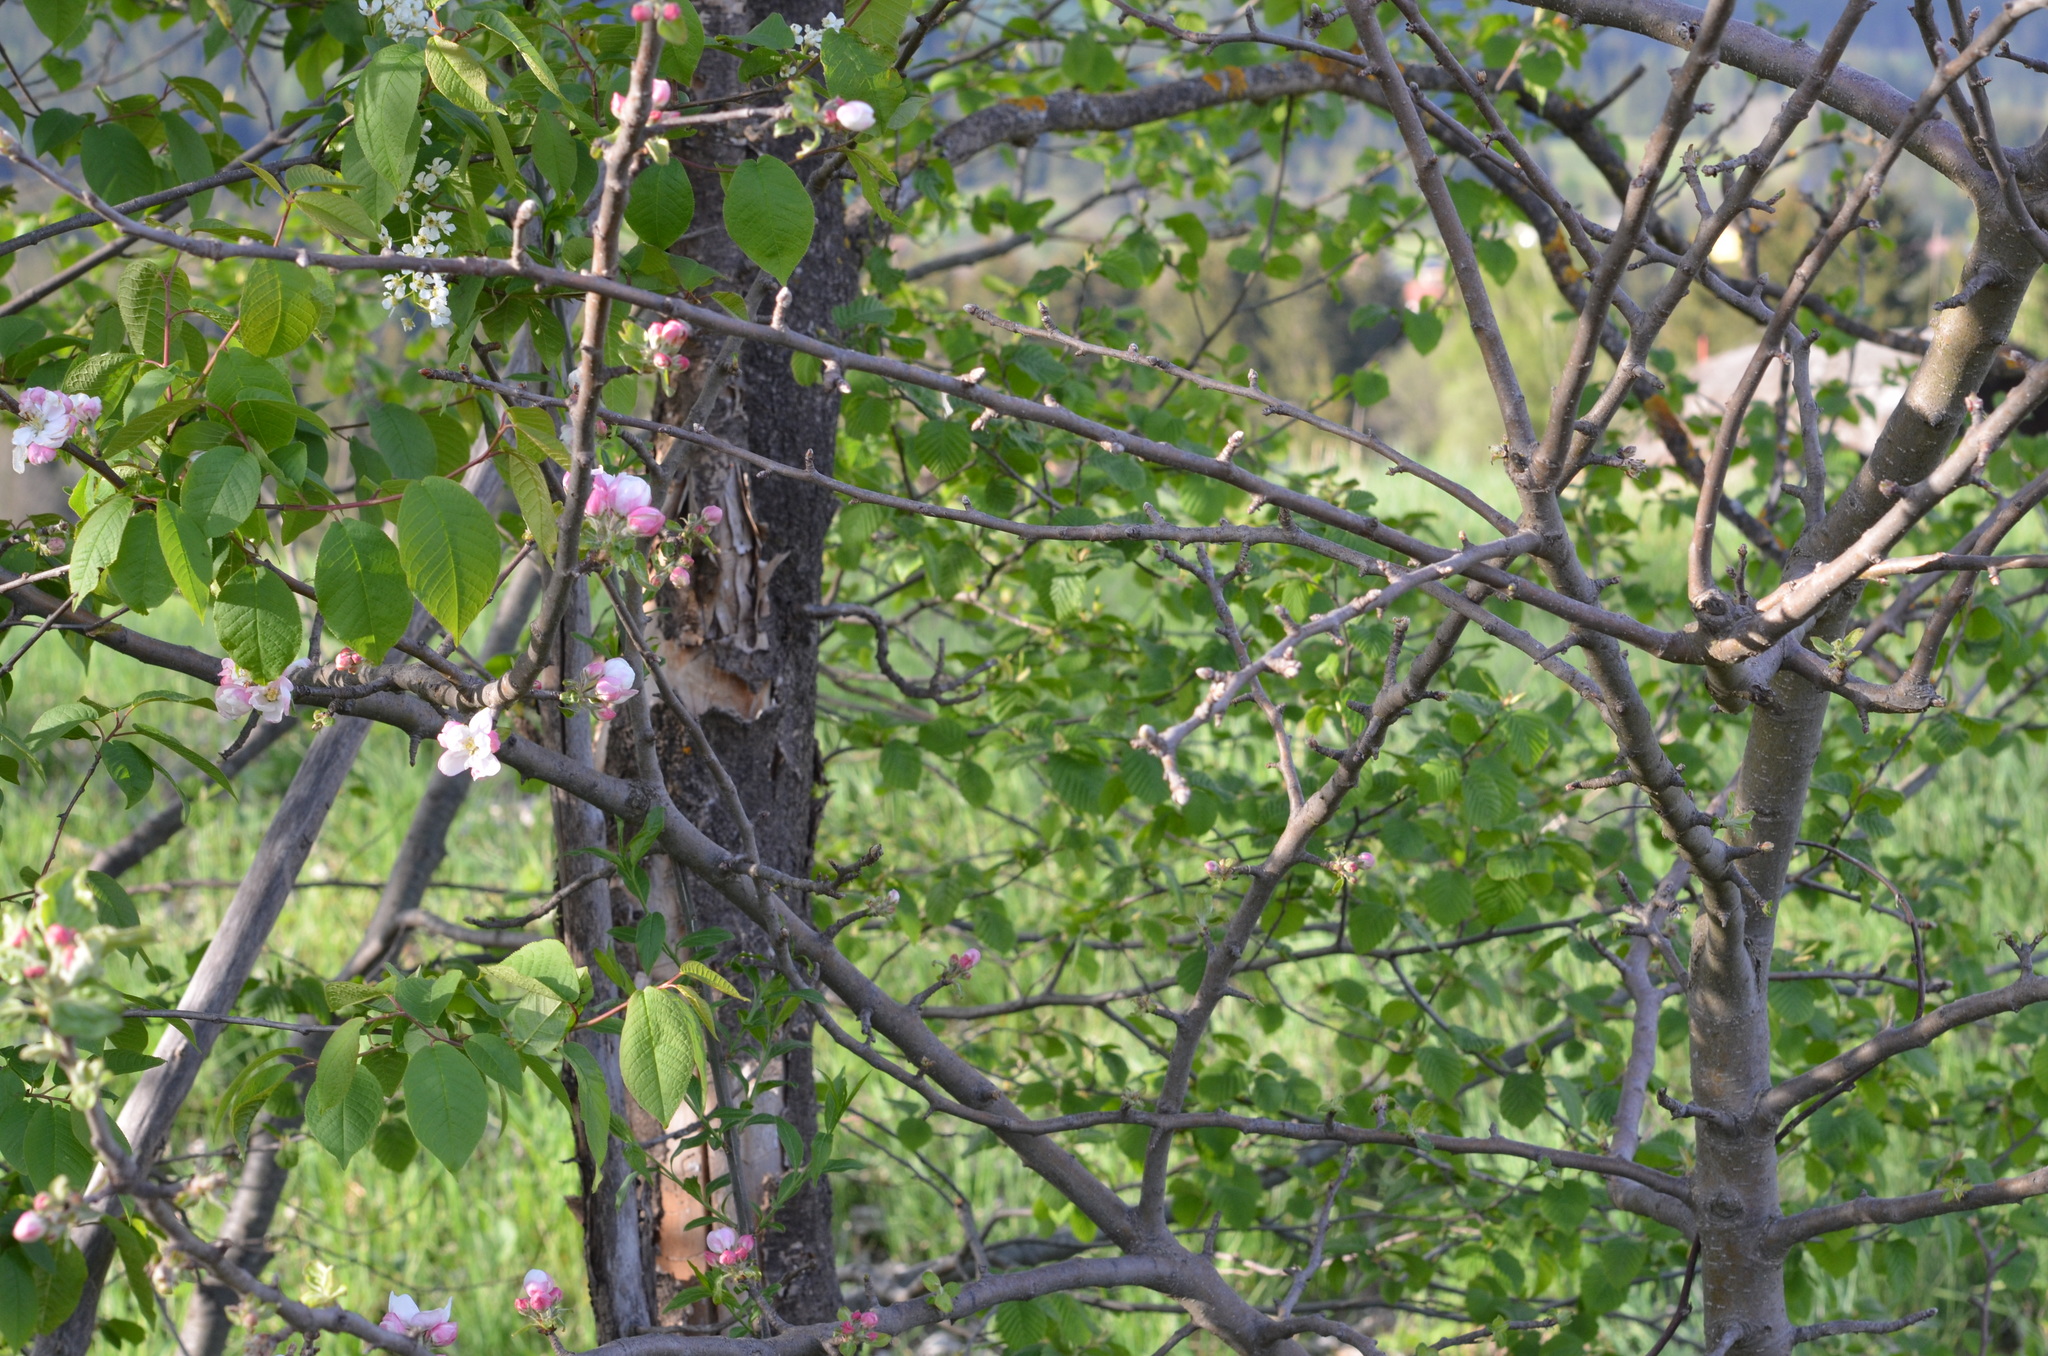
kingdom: Plantae
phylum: Tracheophyta
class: Magnoliopsida
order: Rosales
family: Rosaceae
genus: Malus
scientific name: Malus domestica
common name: Apple
